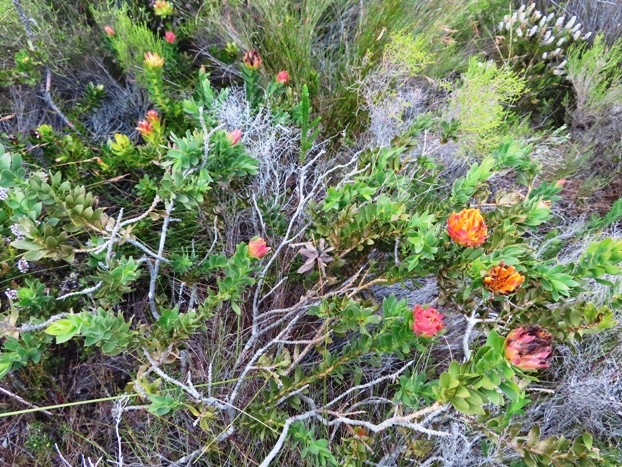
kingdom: Plantae
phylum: Tracheophyta
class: Magnoliopsida
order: Fabales
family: Fabaceae
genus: Liparia
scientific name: Liparia splendens
